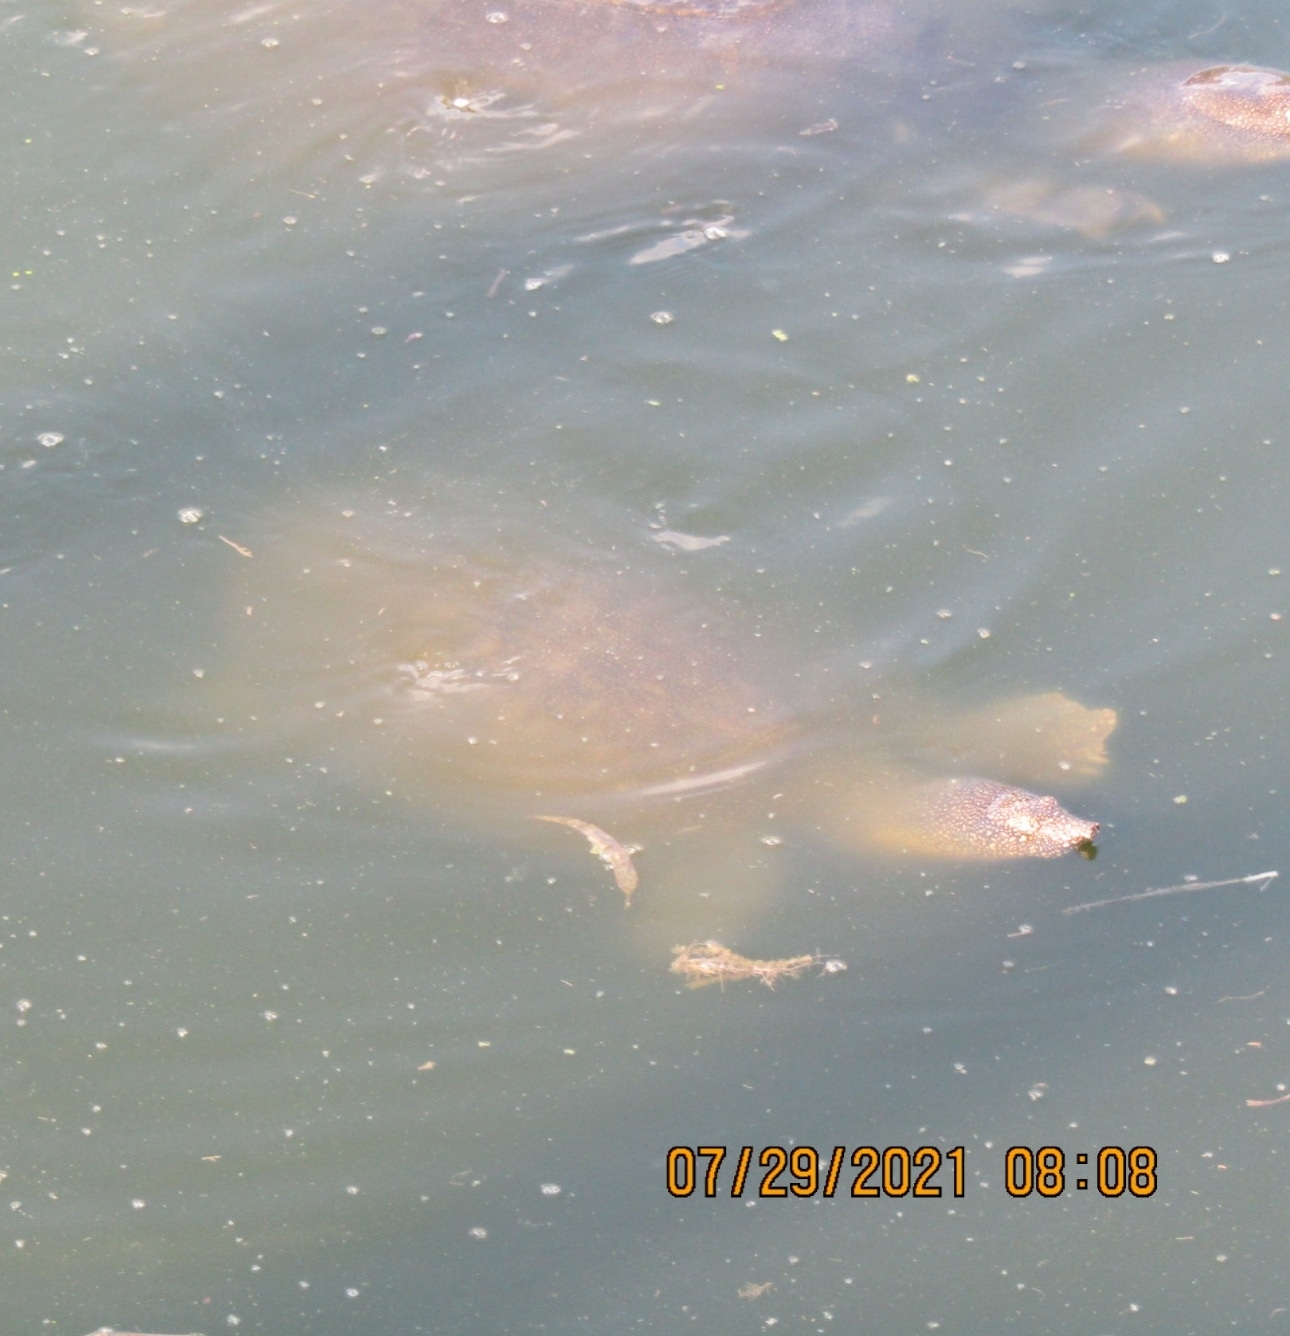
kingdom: Animalia
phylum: Chordata
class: Testudines
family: Trionychidae
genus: Trionyx
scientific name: Trionyx triunguis
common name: African softshell turtle
